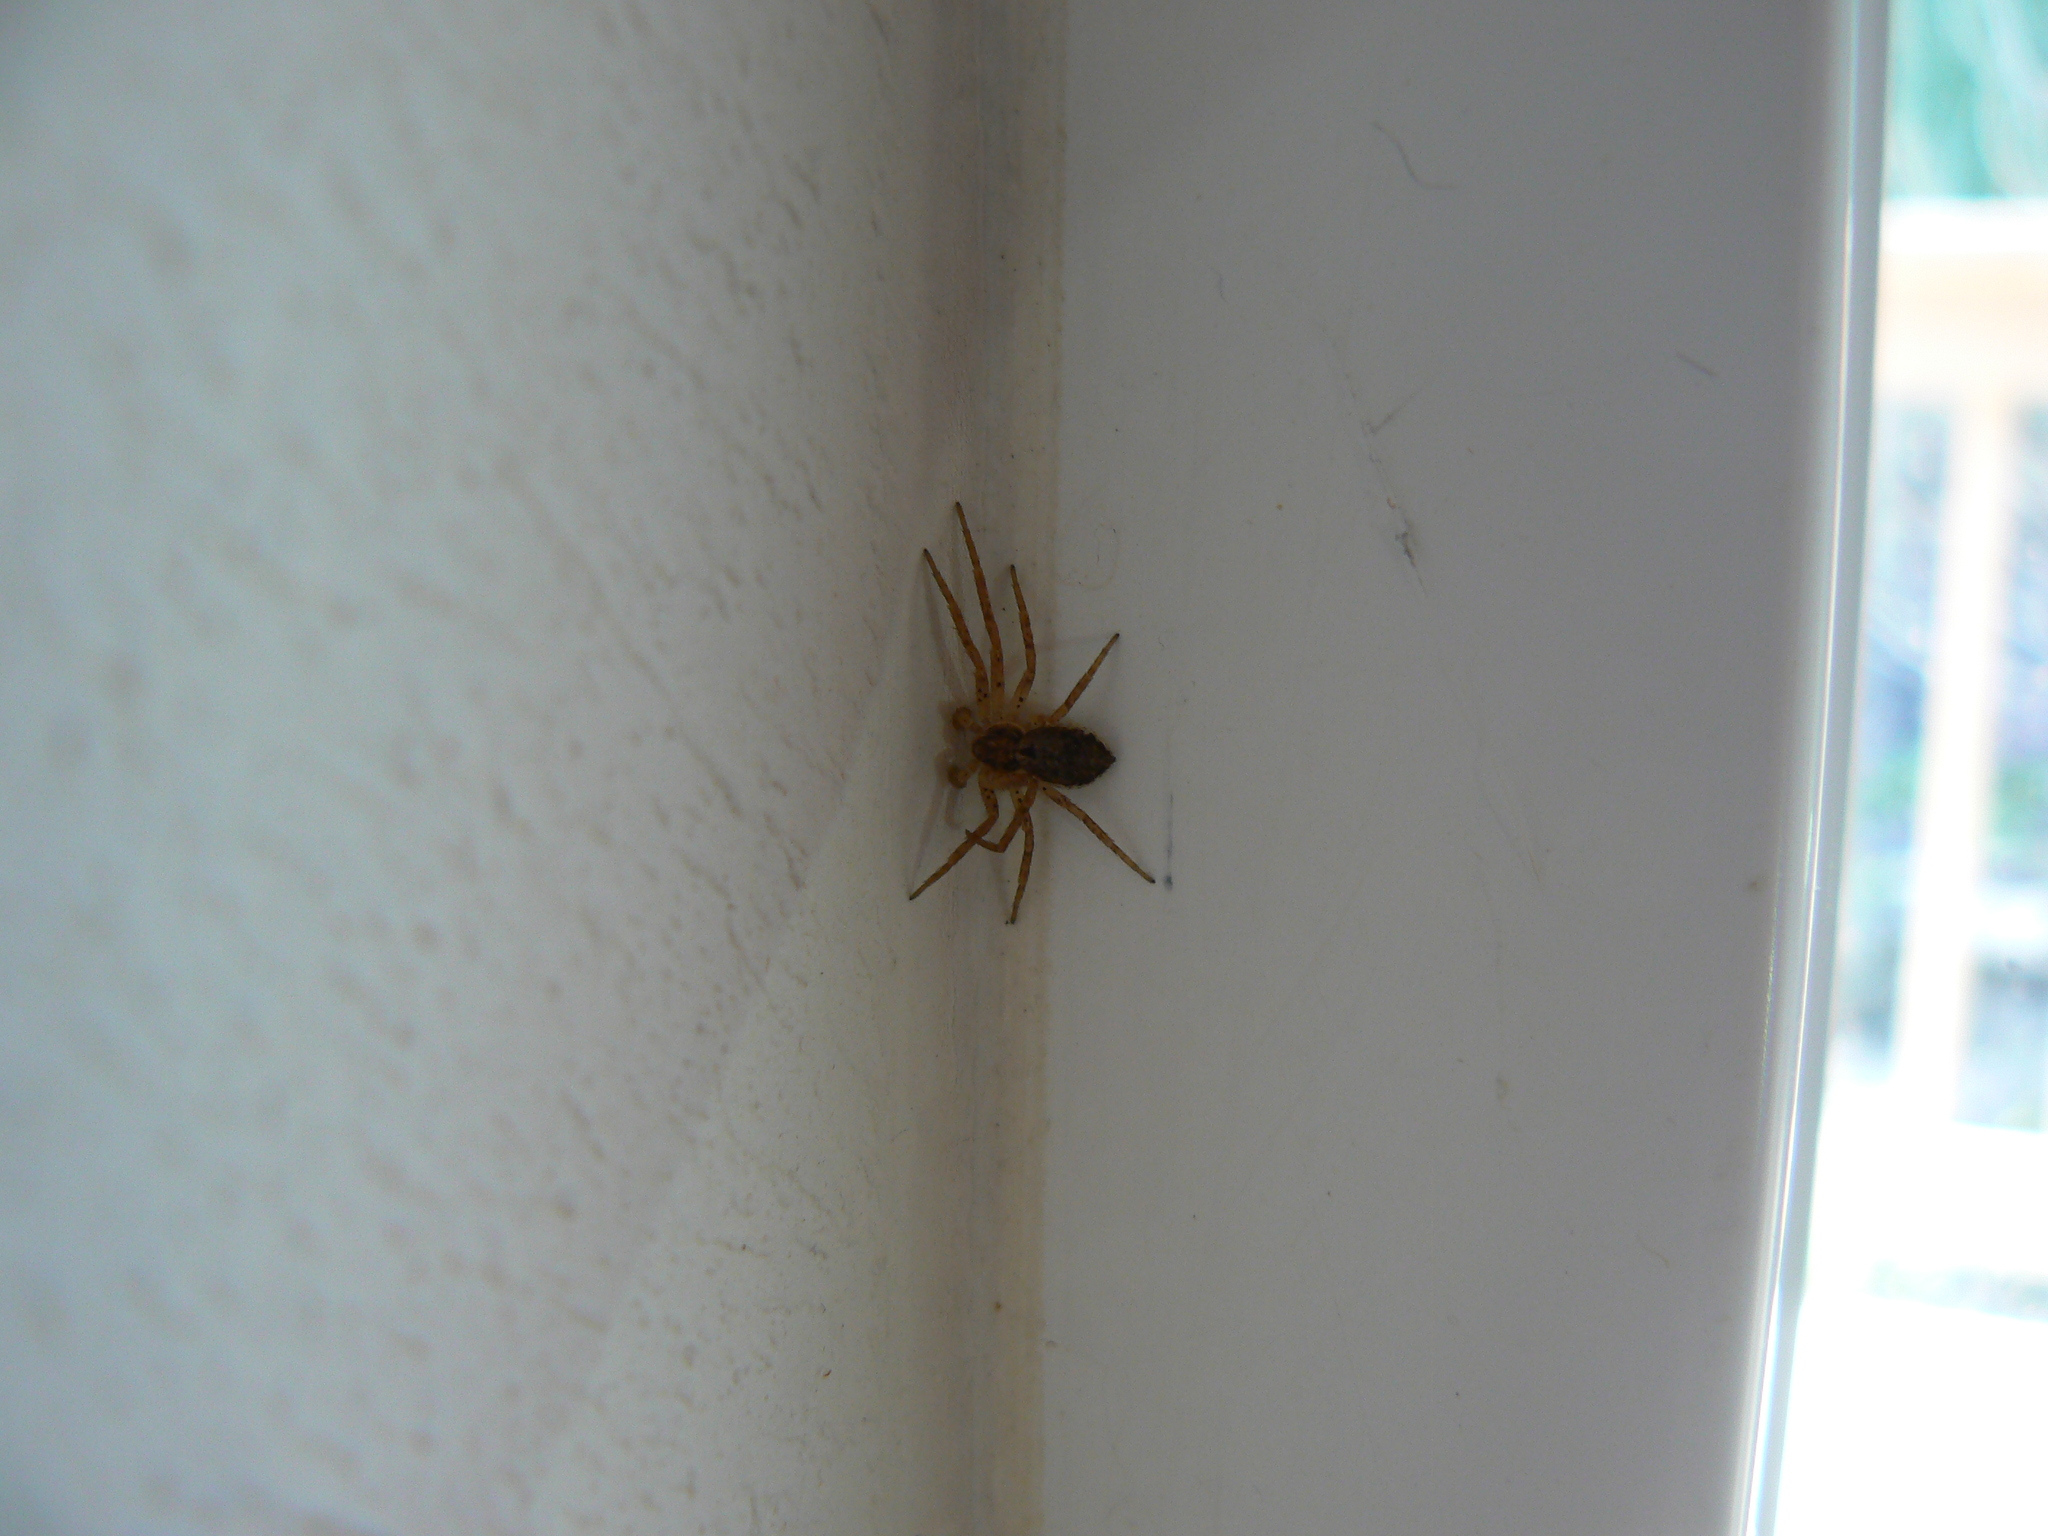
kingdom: Animalia
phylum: Arthropoda
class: Arachnida
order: Araneae
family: Philodromidae
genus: Philodromus
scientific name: Philodromus dispar
